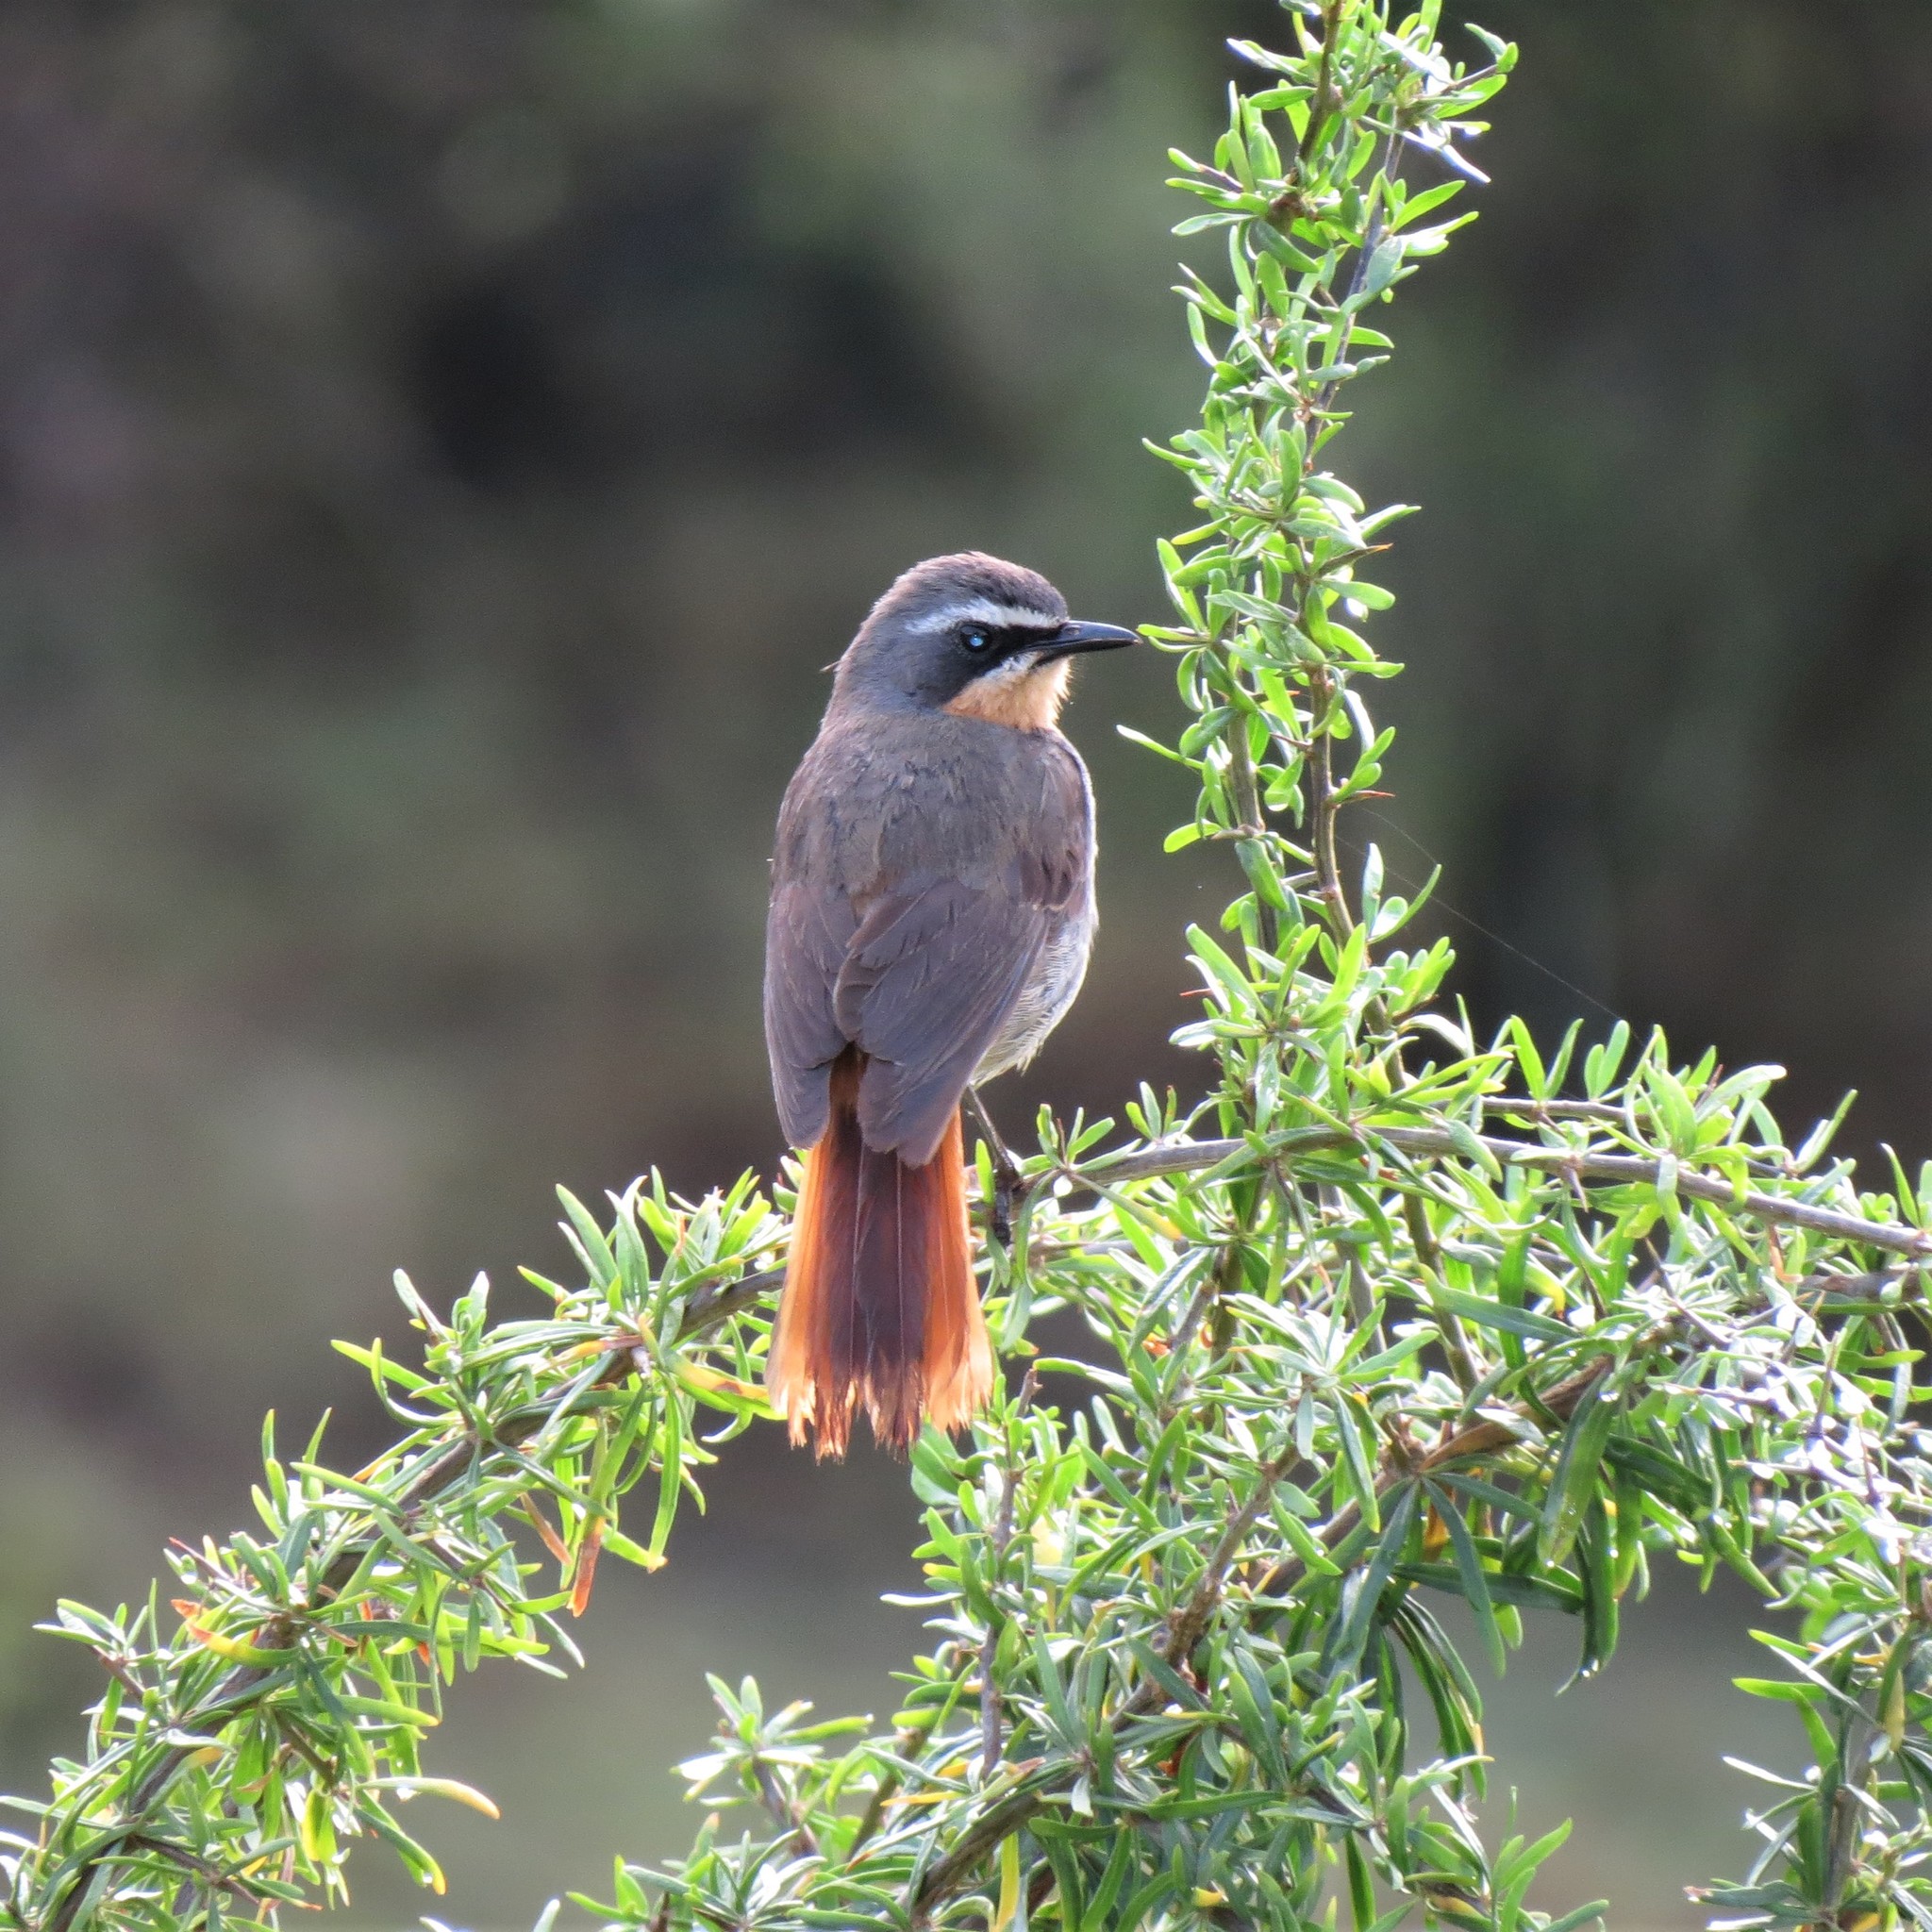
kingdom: Animalia
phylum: Chordata
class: Aves
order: Passeriformes
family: Muscicapidae
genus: Cossypha
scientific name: Cossypha caffra
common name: Cape robin-chat
